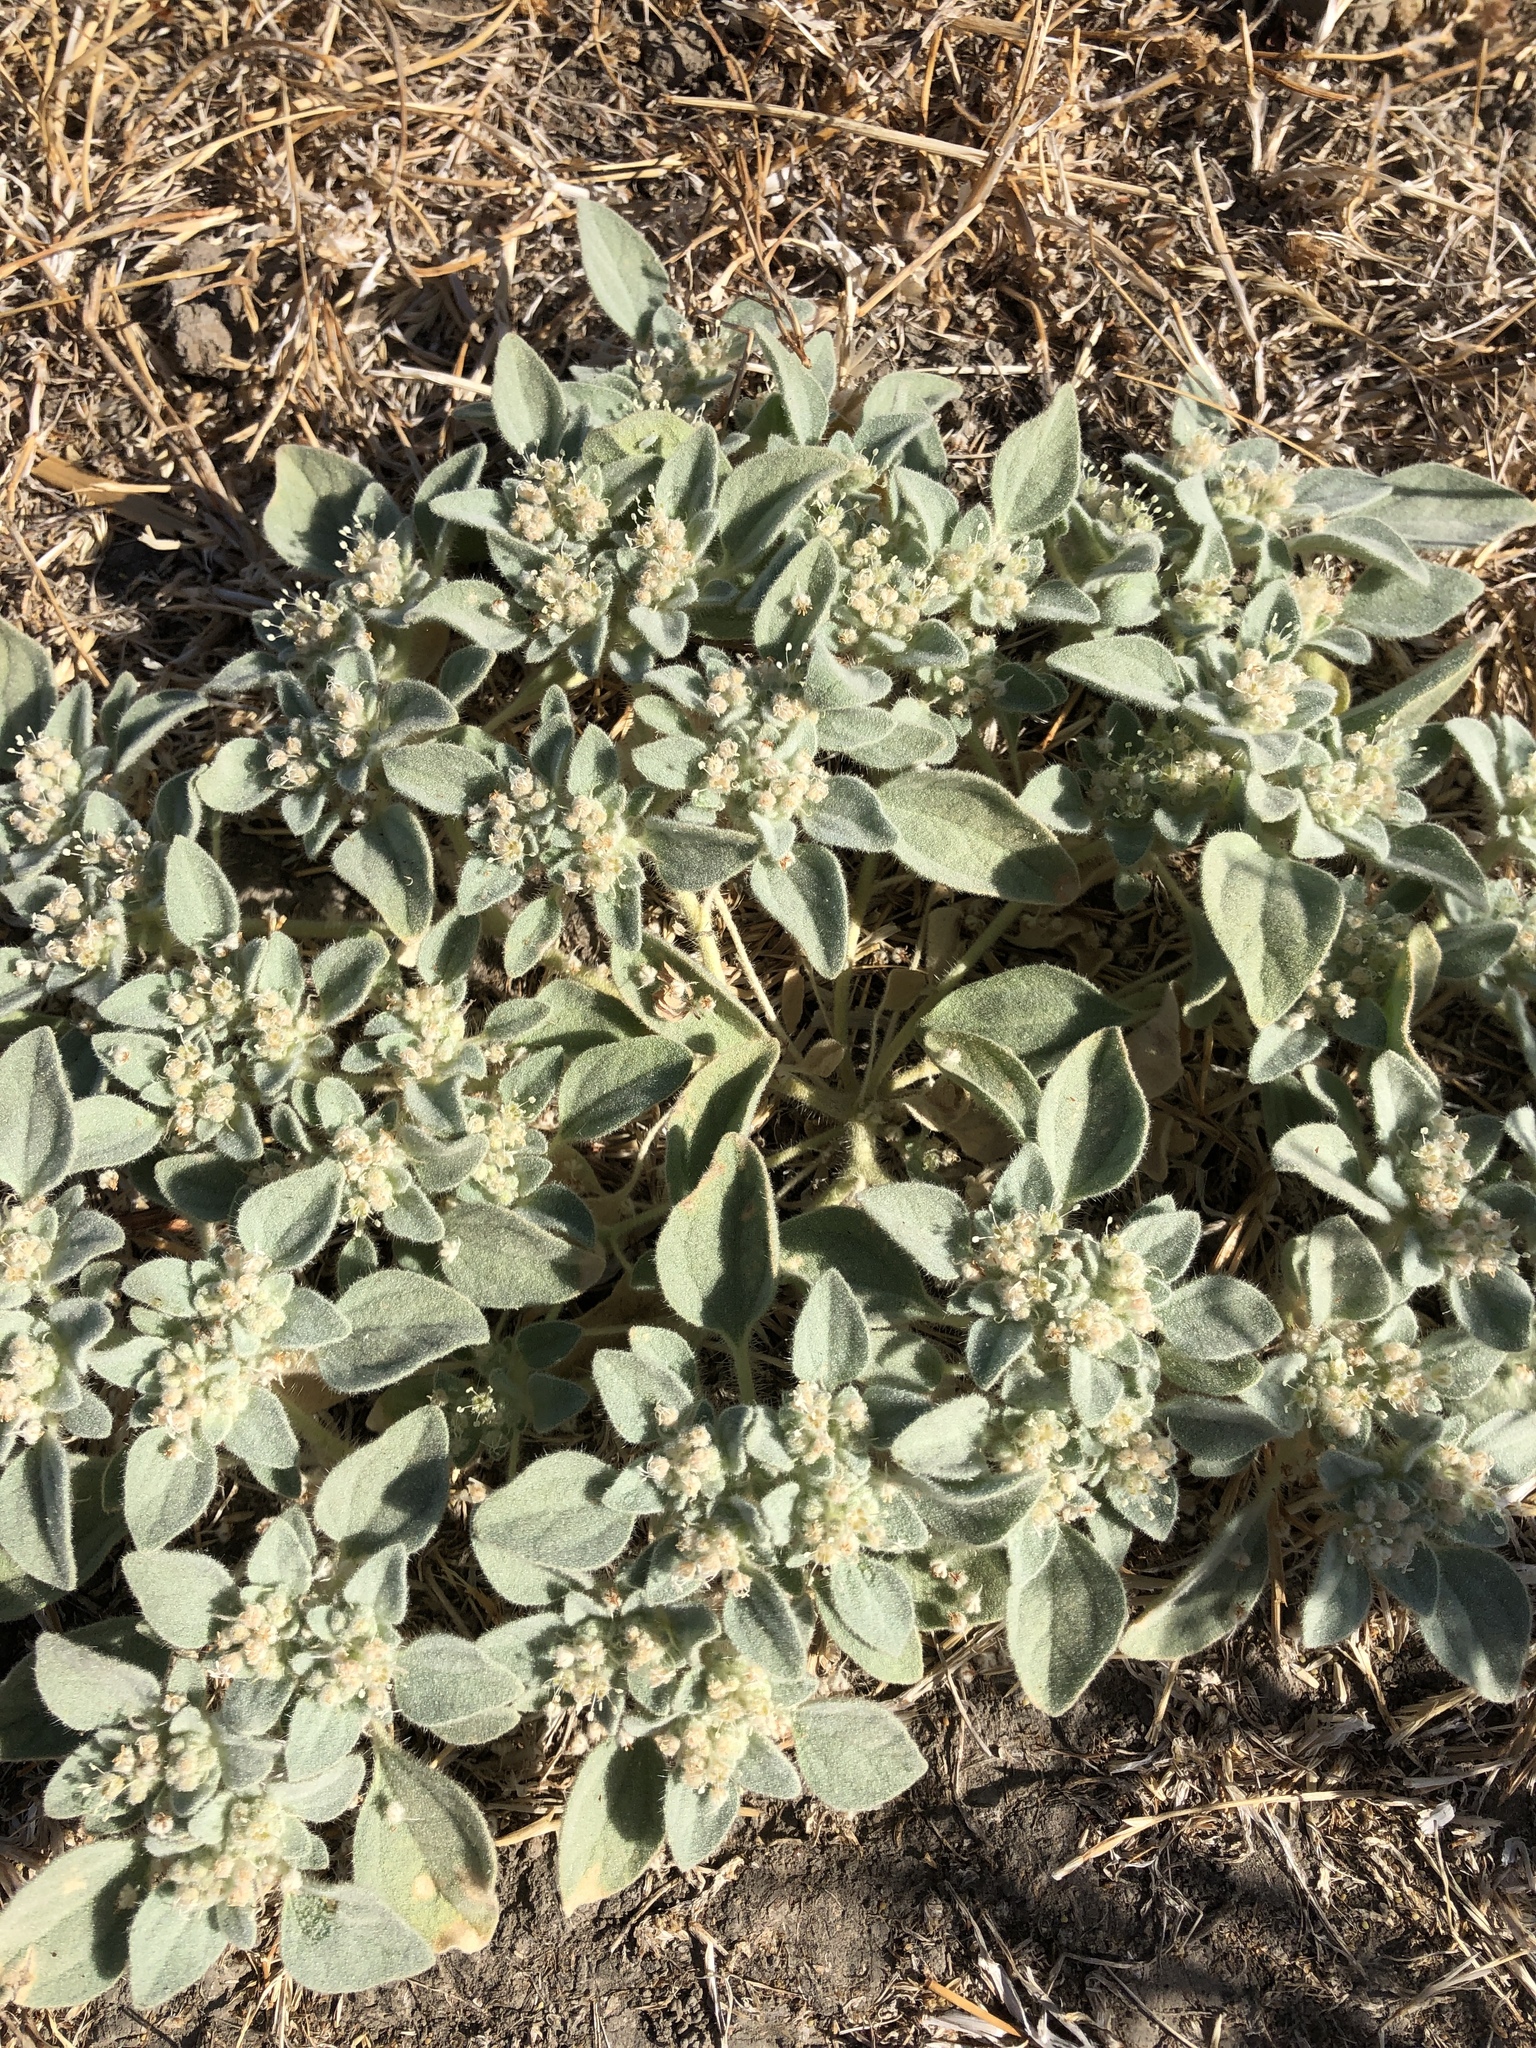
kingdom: Plantae
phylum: Tracheophyta
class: Magnoliopsida
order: Malpighiales
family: Euphorbiaceae
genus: Croton
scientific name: Croton setiger
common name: Dove weed
